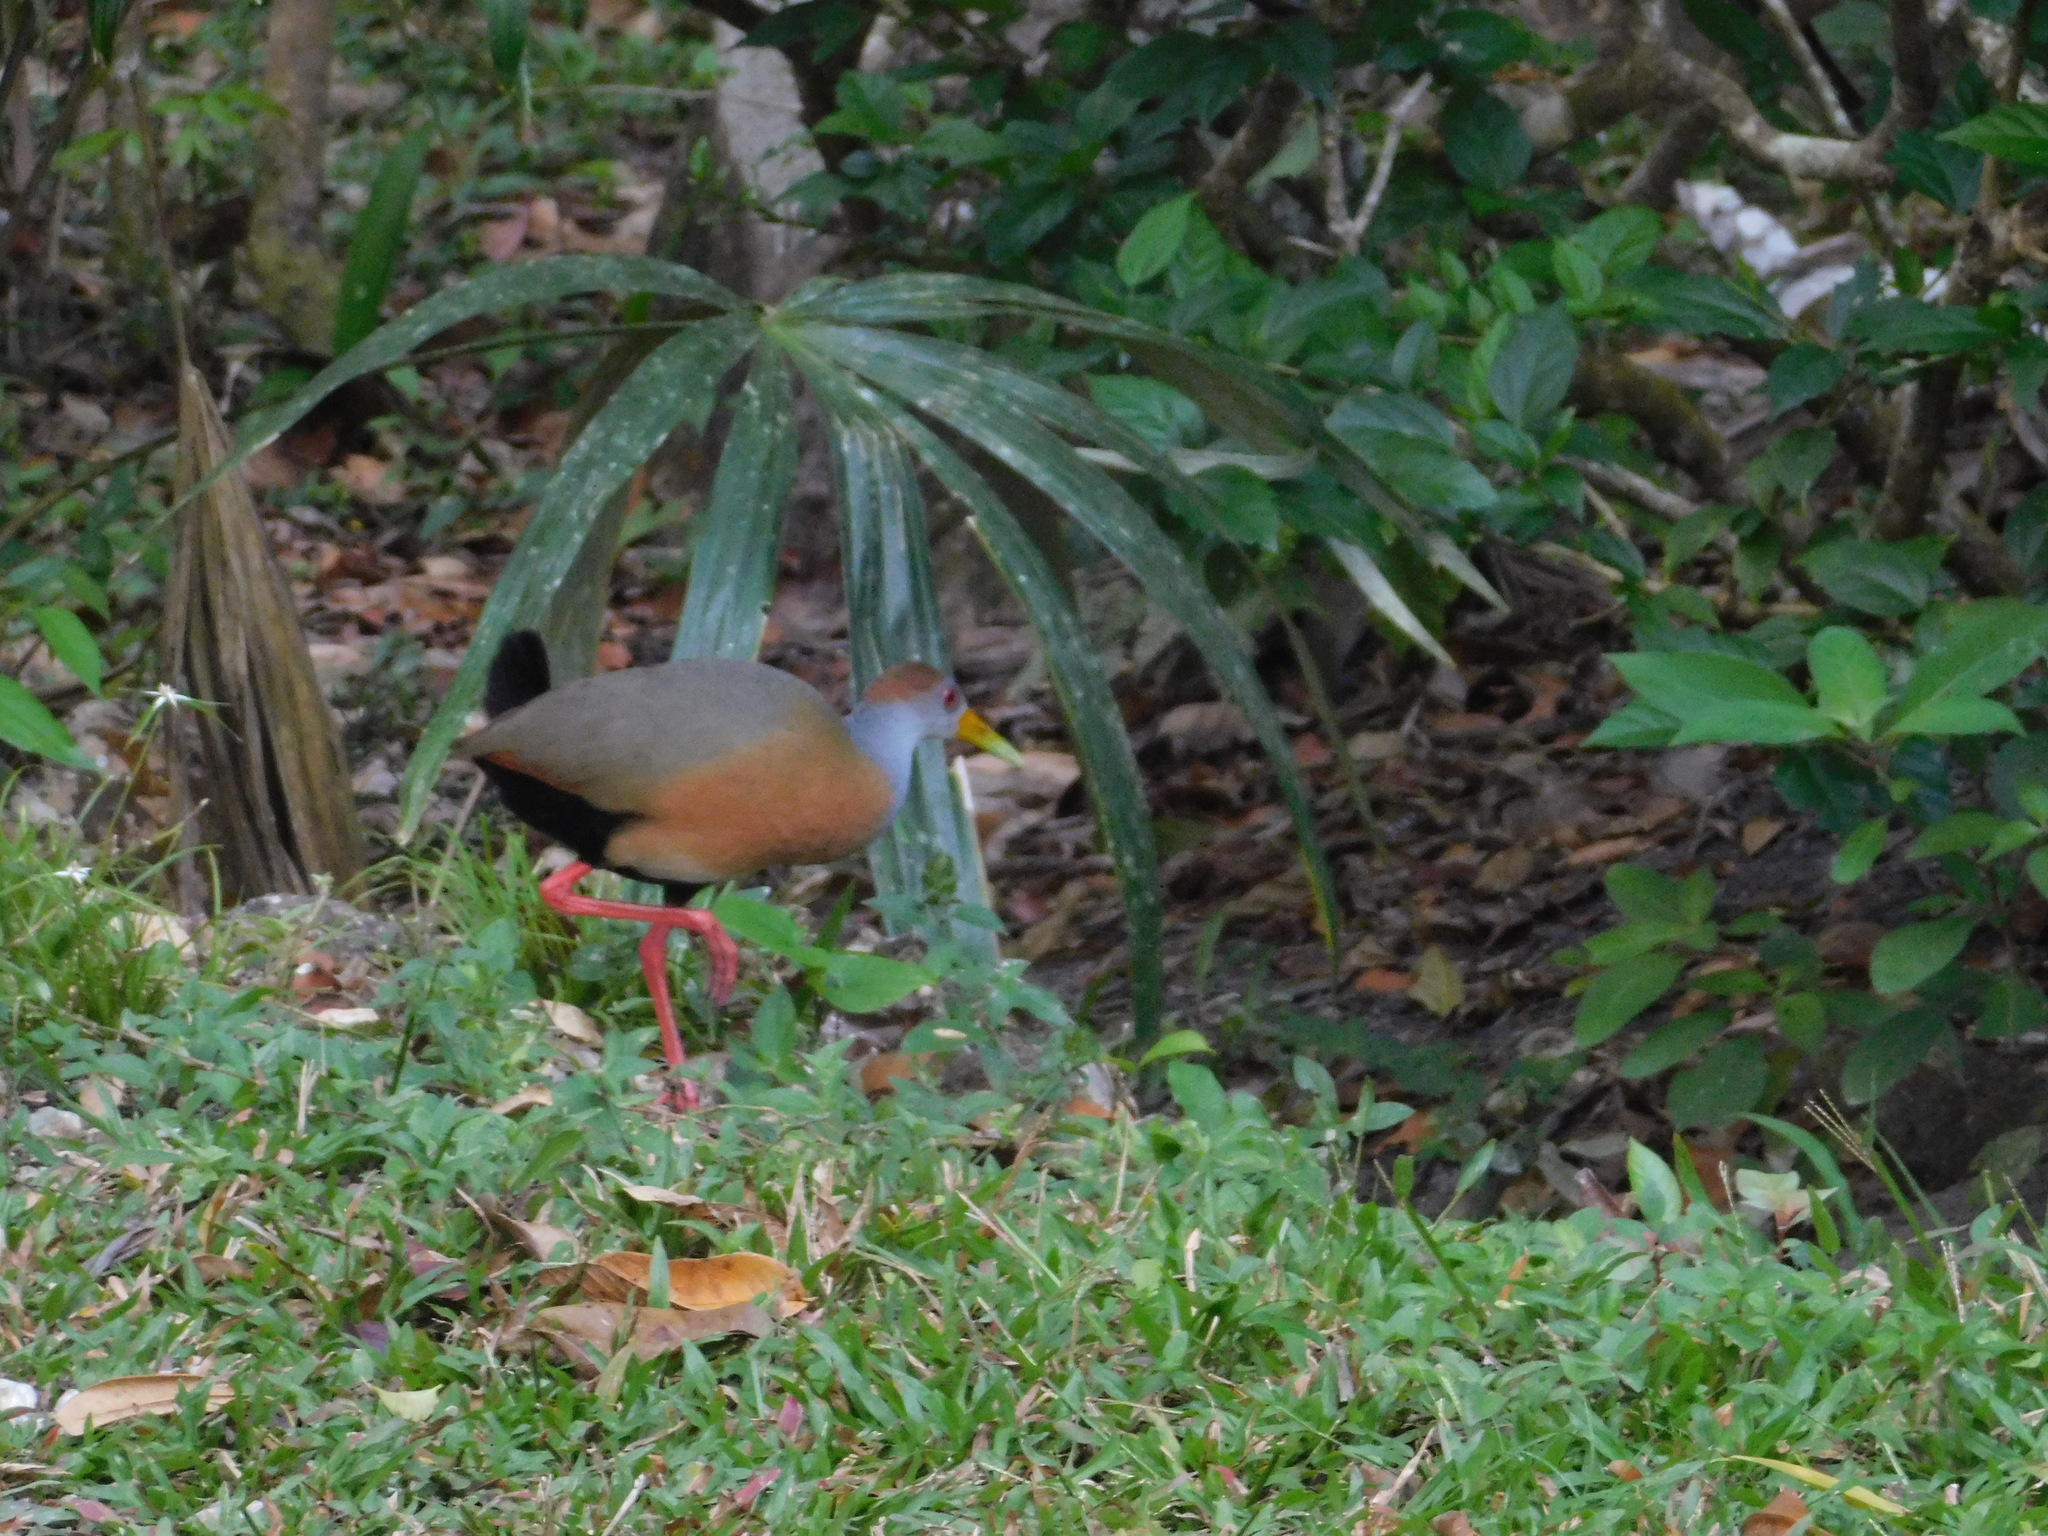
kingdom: Animalia
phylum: Chordata
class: Aves
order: Gruiformes
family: Rallidae
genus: Aramides
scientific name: Aramides albiventris
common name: Russet-naped wood-rail
